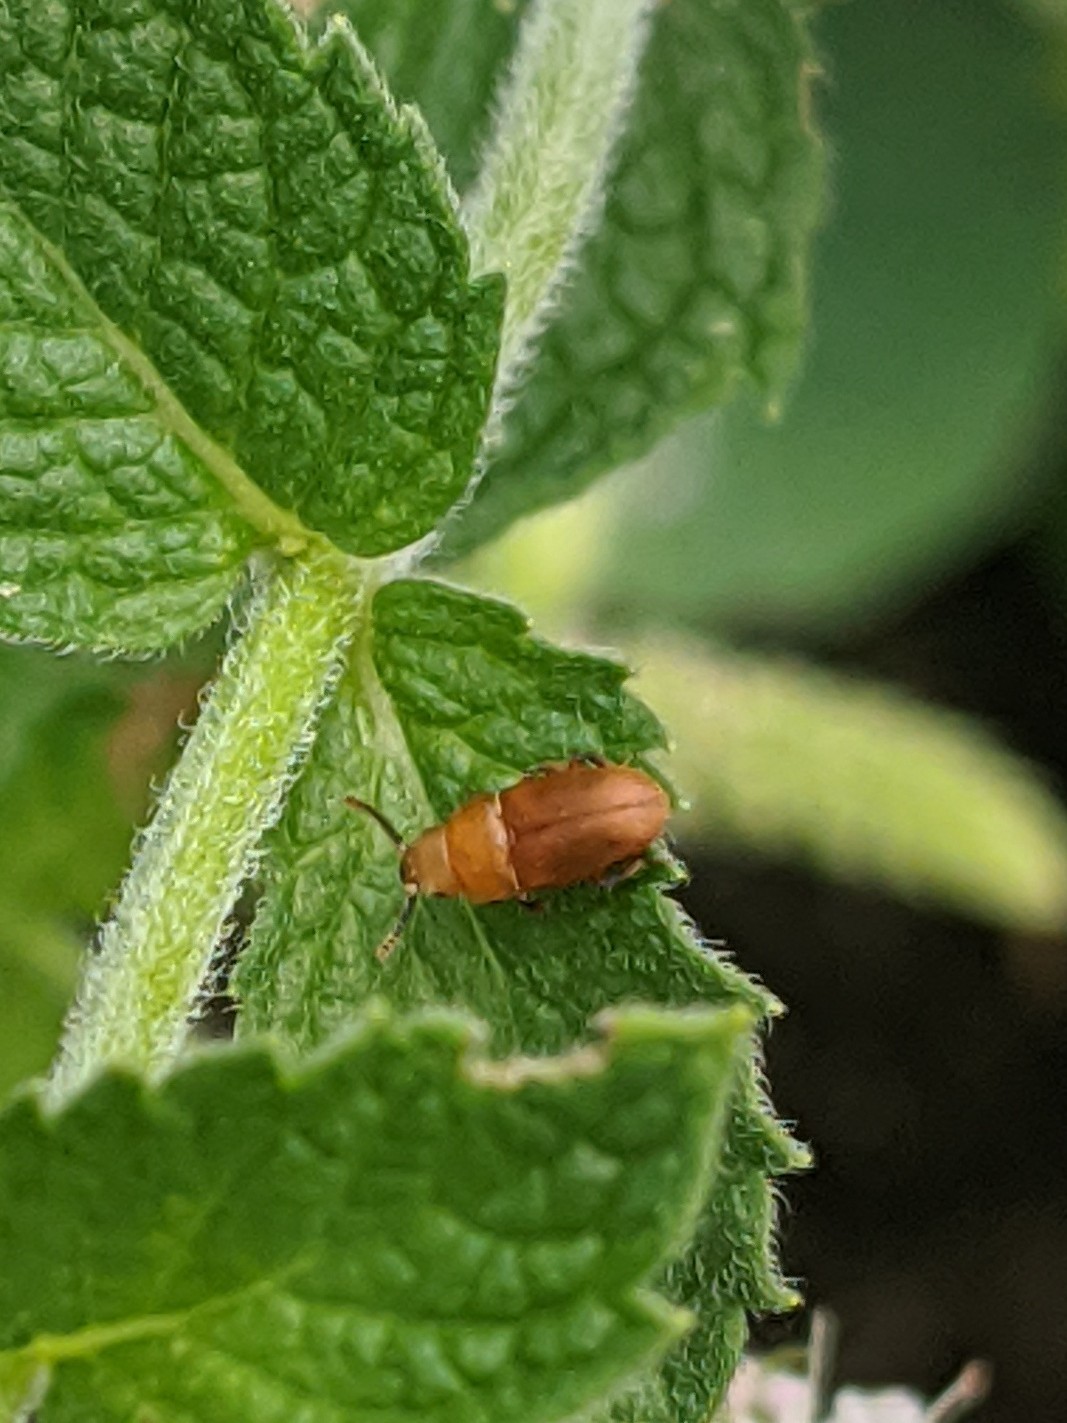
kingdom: Animalia
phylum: Arthropoda
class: Insecta
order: Coleoptera
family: Cryptophagidae
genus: Antherophagus
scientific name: Antherophagus ochraceus
